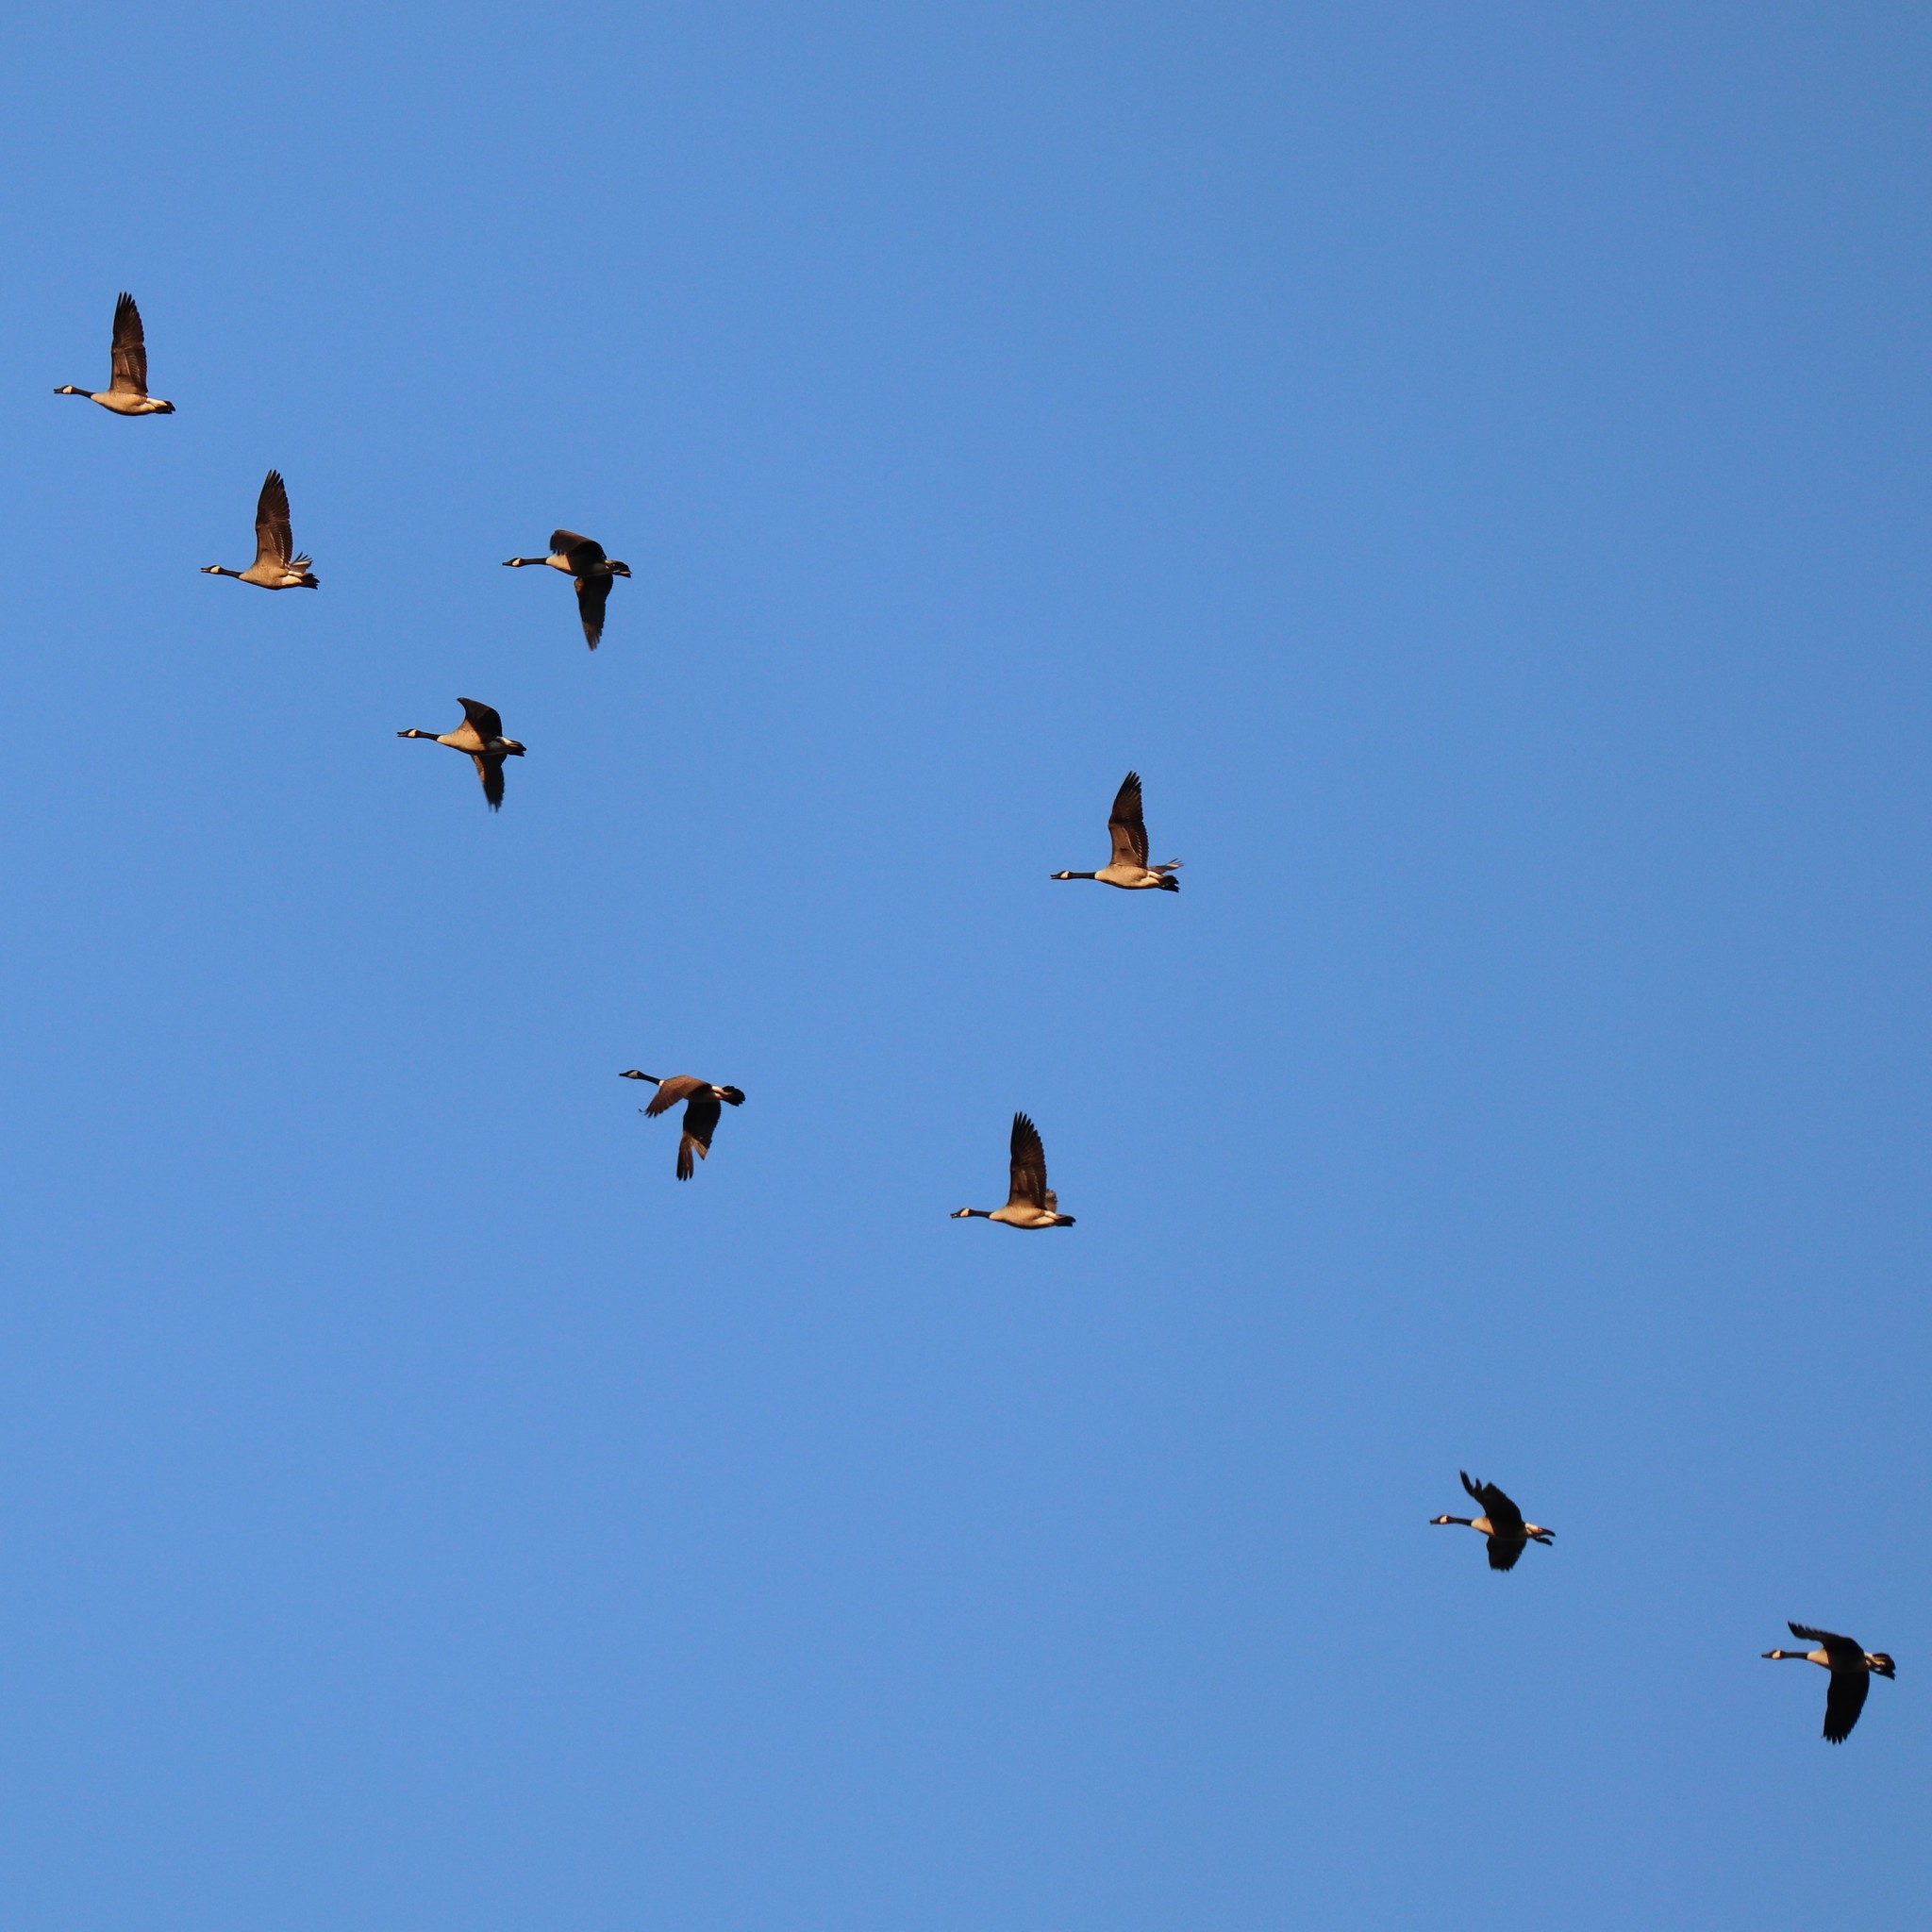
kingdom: Animalia
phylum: Chordata
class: Aves
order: Anseriformes
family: Anatidae
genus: Branta
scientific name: Branta canadensis
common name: Canada goose
